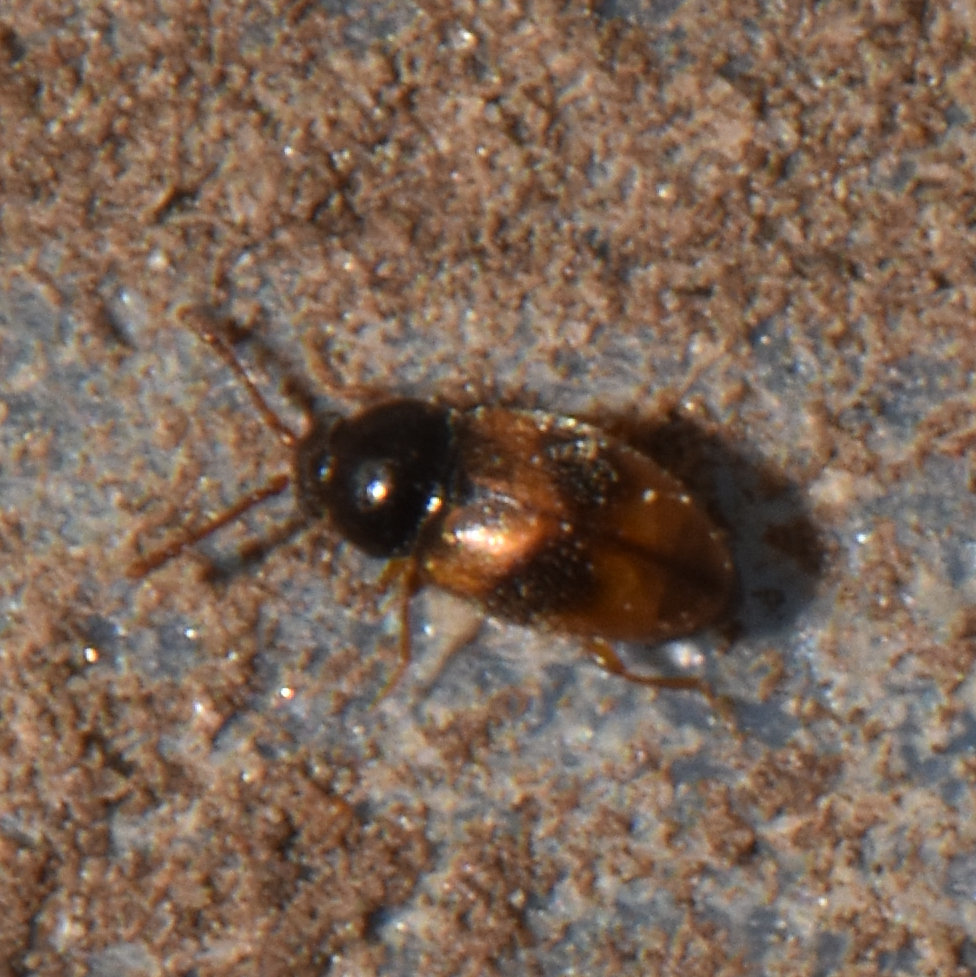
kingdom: Animalia
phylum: Arthropoda
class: Insecta
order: Coleoptera
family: Cryptophagidae
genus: Atomaria
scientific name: Atomaria ephippiata
